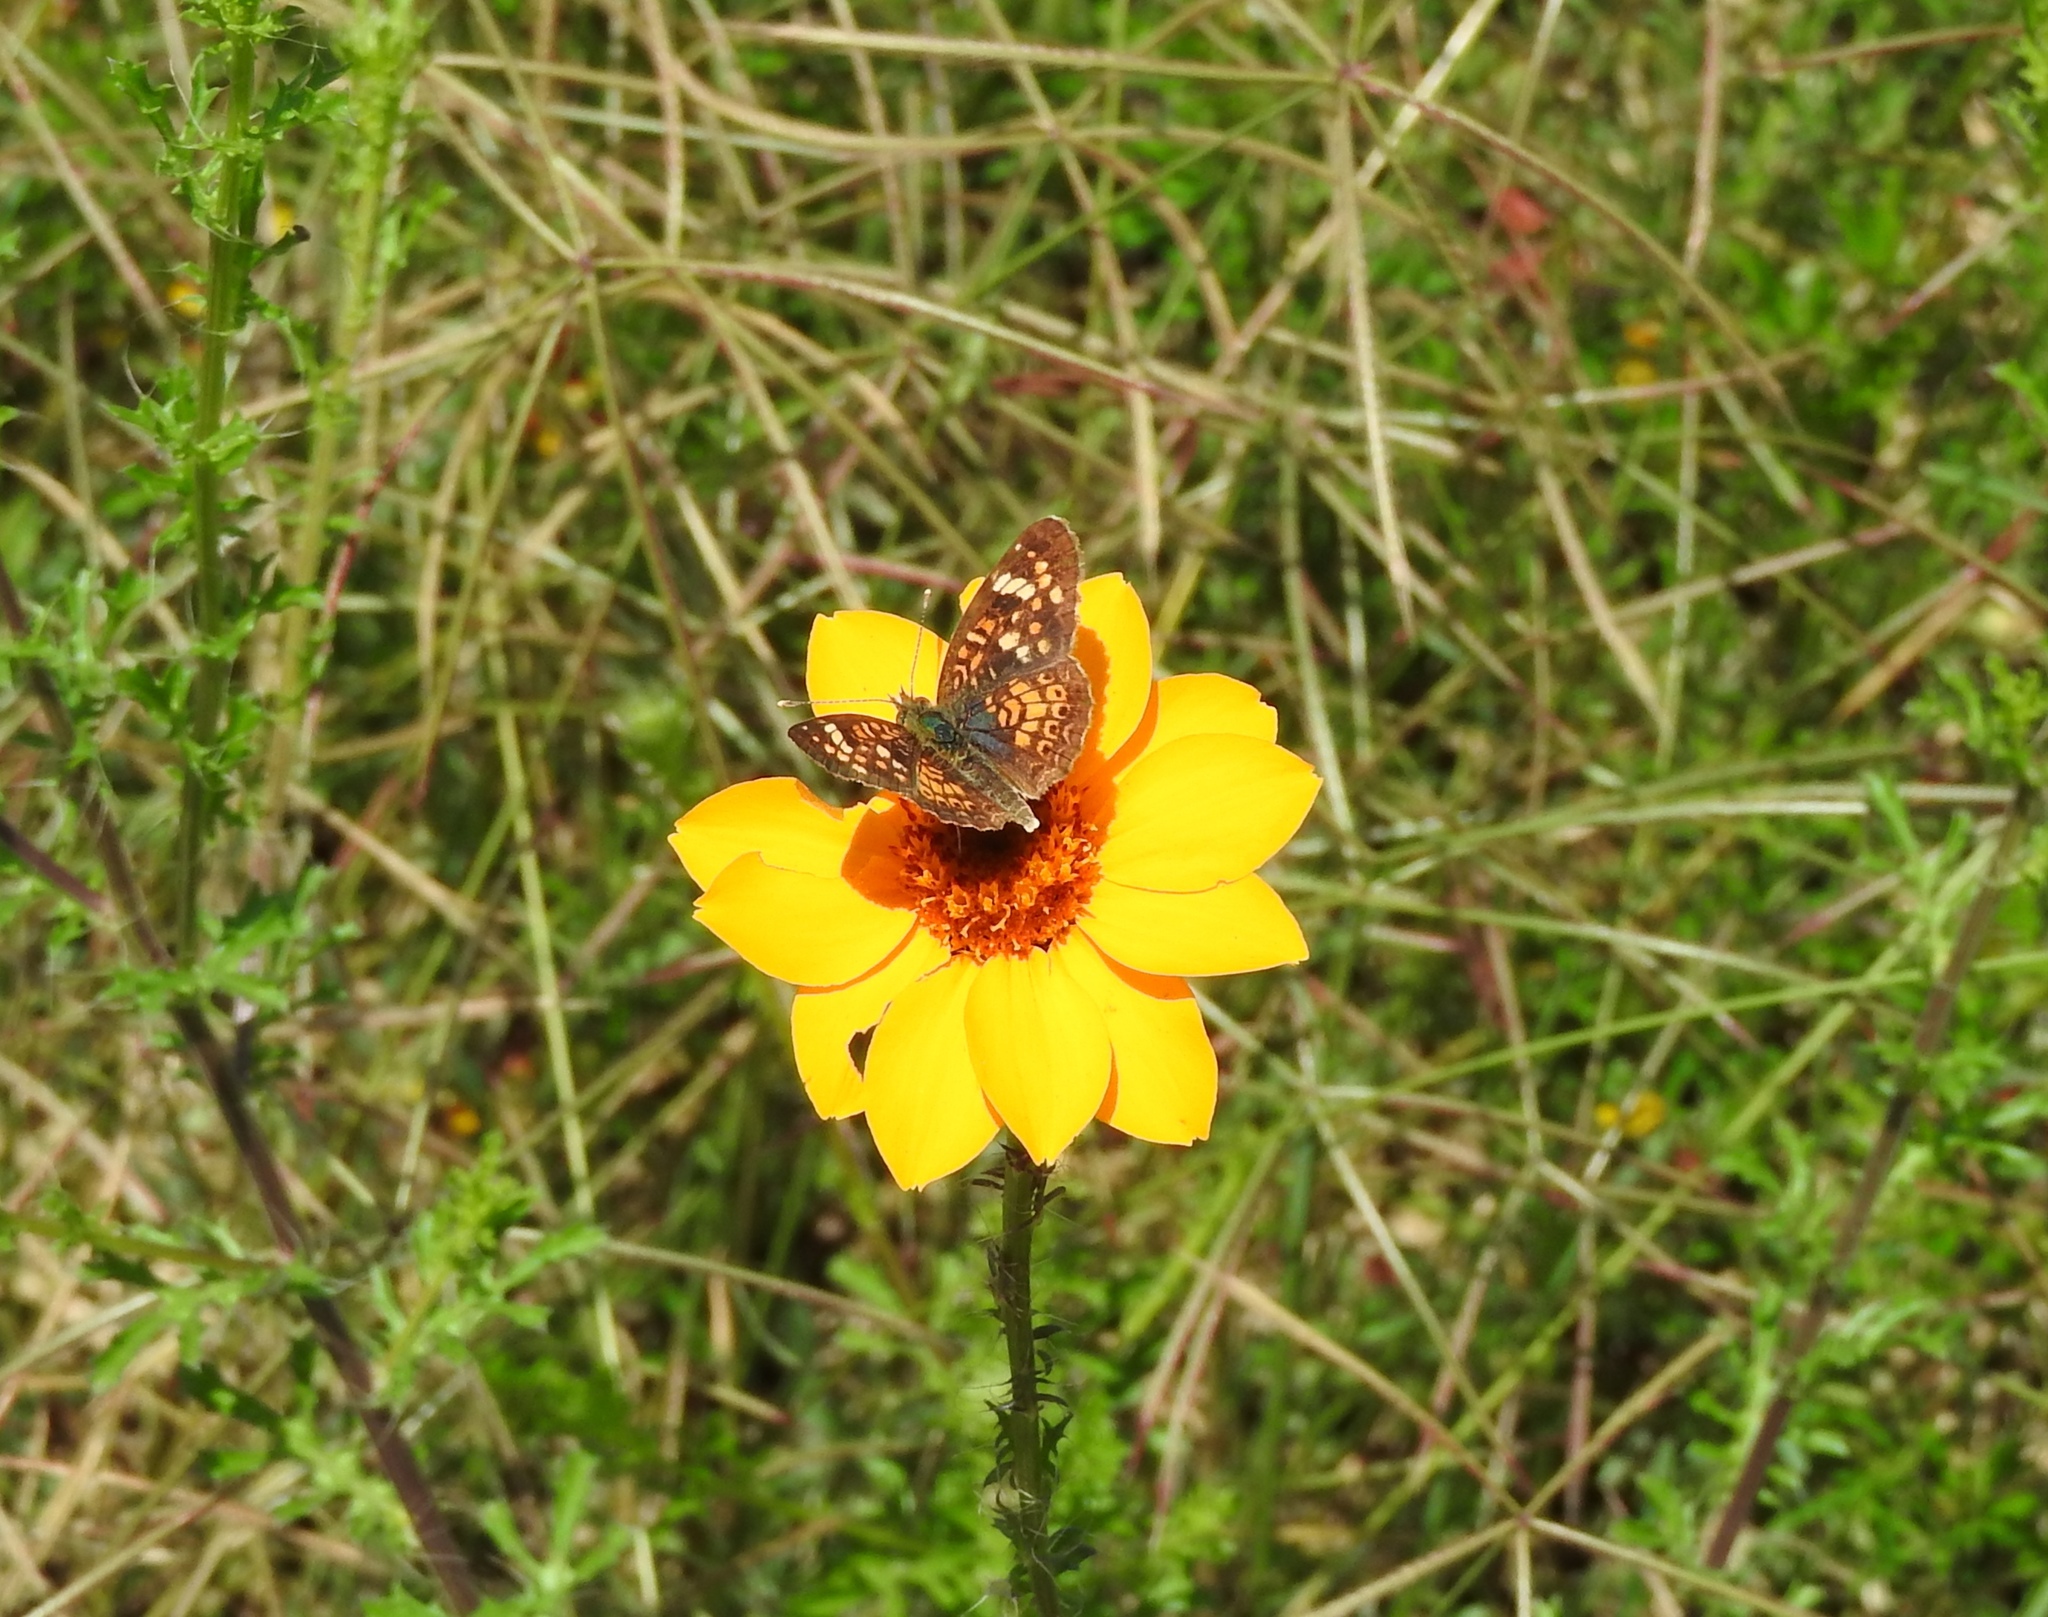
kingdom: Animalia
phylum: Arthropoda
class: Insecta
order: Lepidoptera
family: Nymphalidae
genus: Phyciodes
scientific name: Phyciodes picta
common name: Painted crescent
